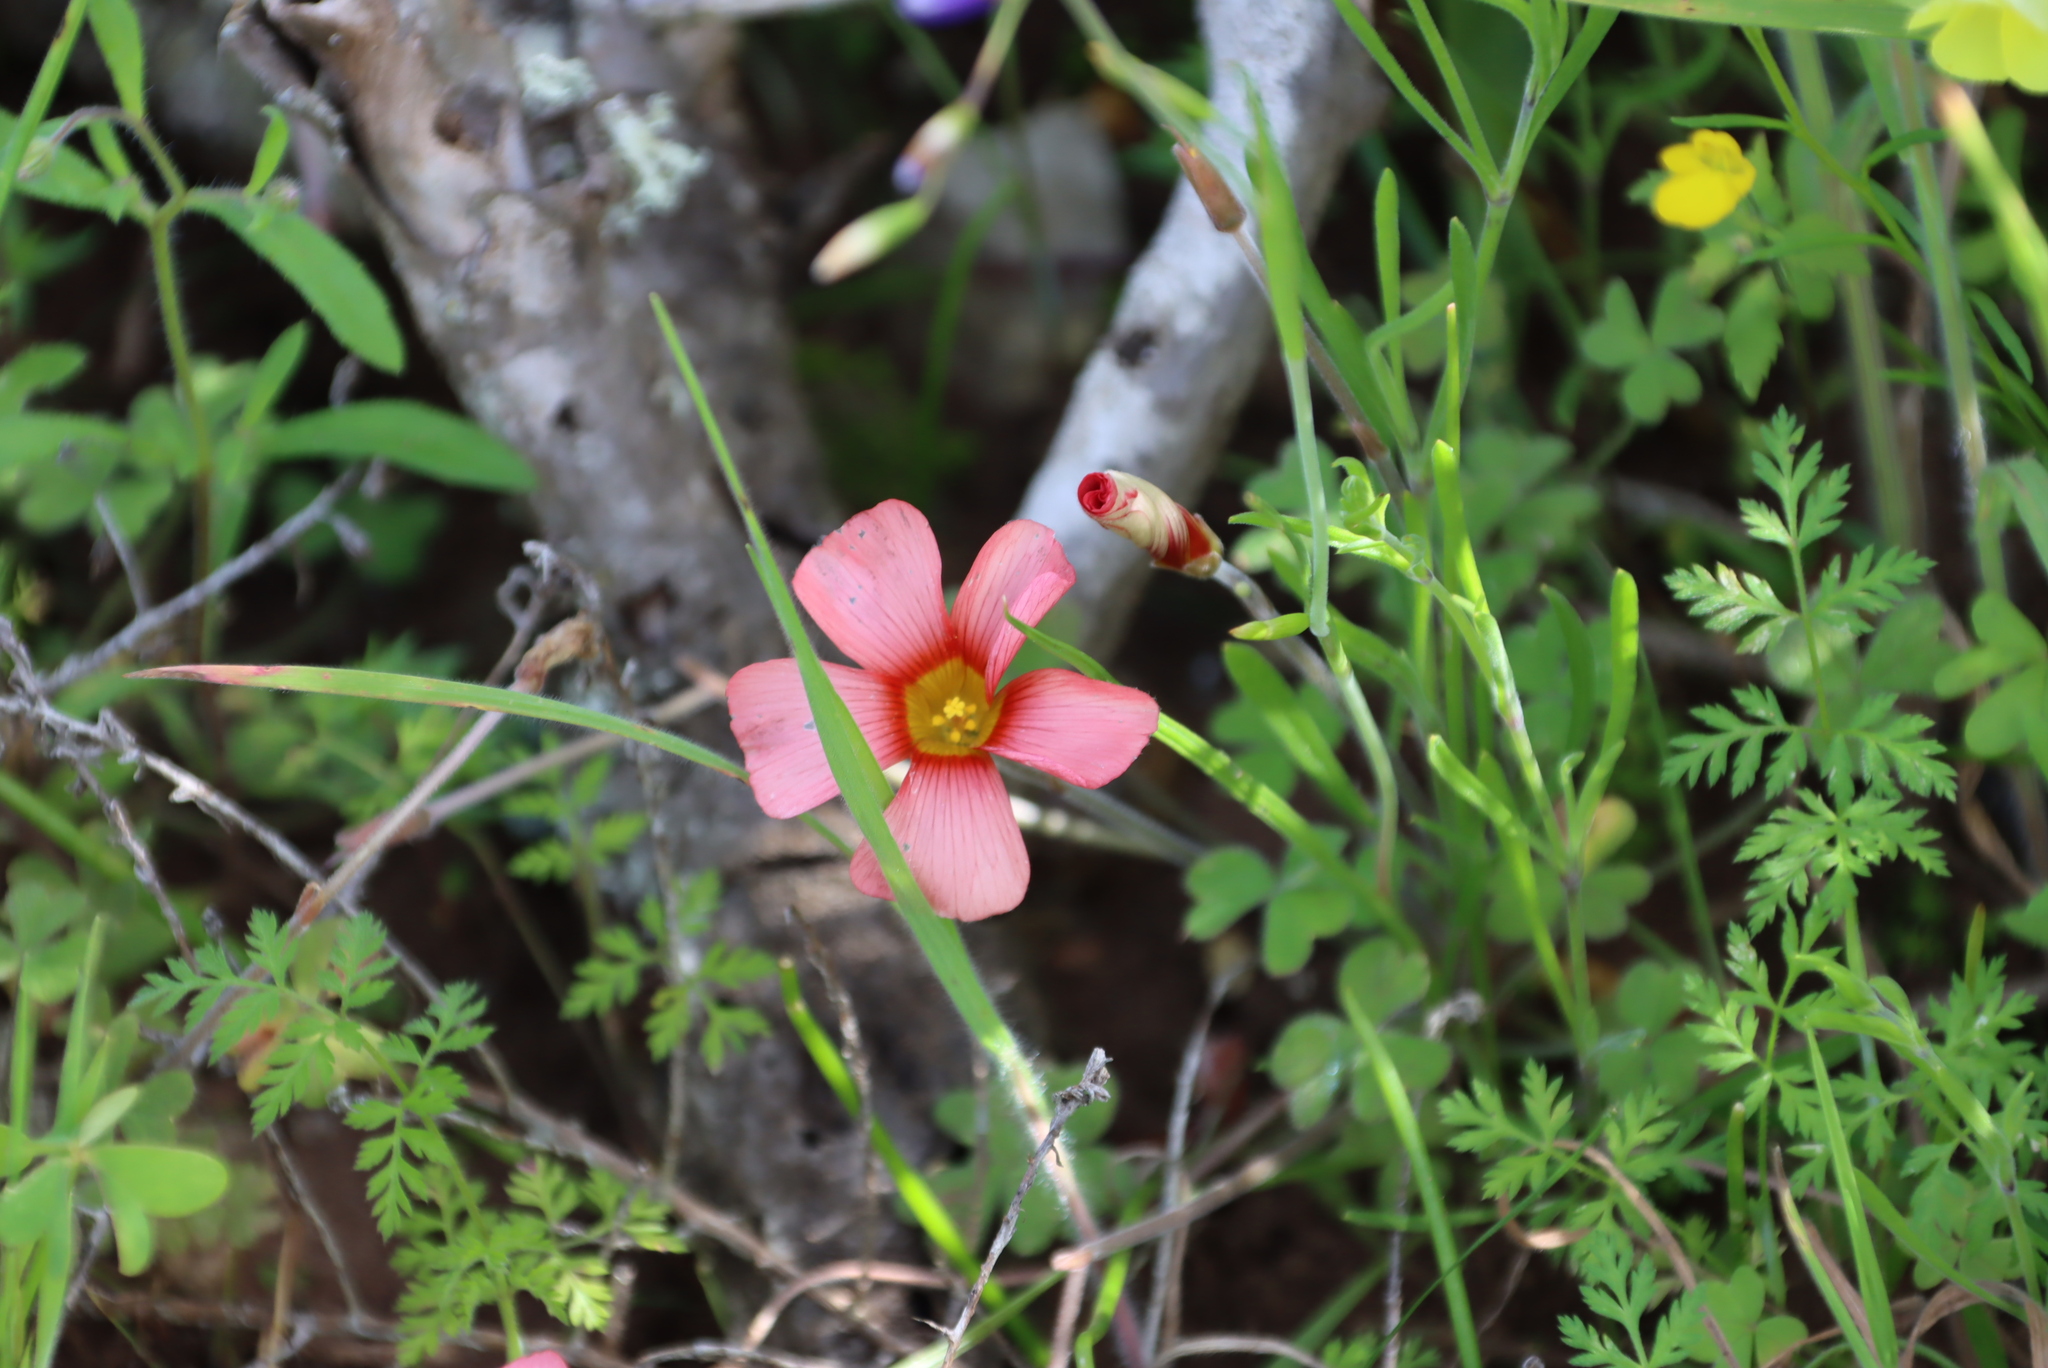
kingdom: Plantae
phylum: Tracheophyta
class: Magnoliopsida
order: Oxalidales
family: Oxalidaceae
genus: Oxalis
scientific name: Oxalis obtusa
